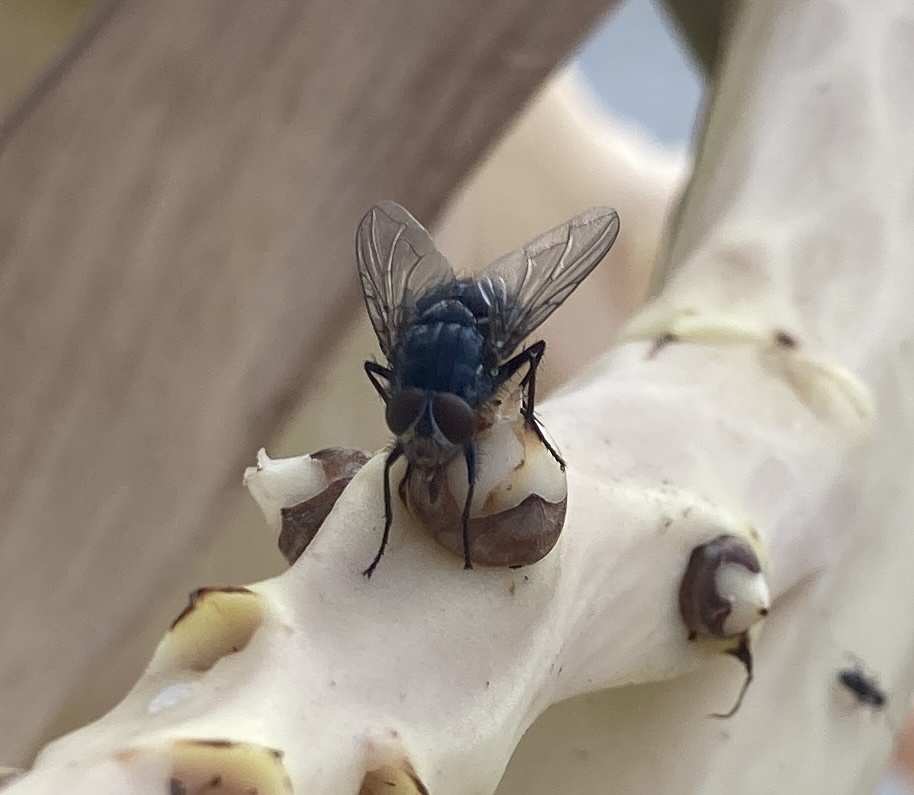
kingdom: Animalia
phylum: Arthropoda
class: Insecta
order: Diptera
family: Calliphoridae
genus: Calliphora
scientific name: Calliphora vicina
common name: Common blow flie
